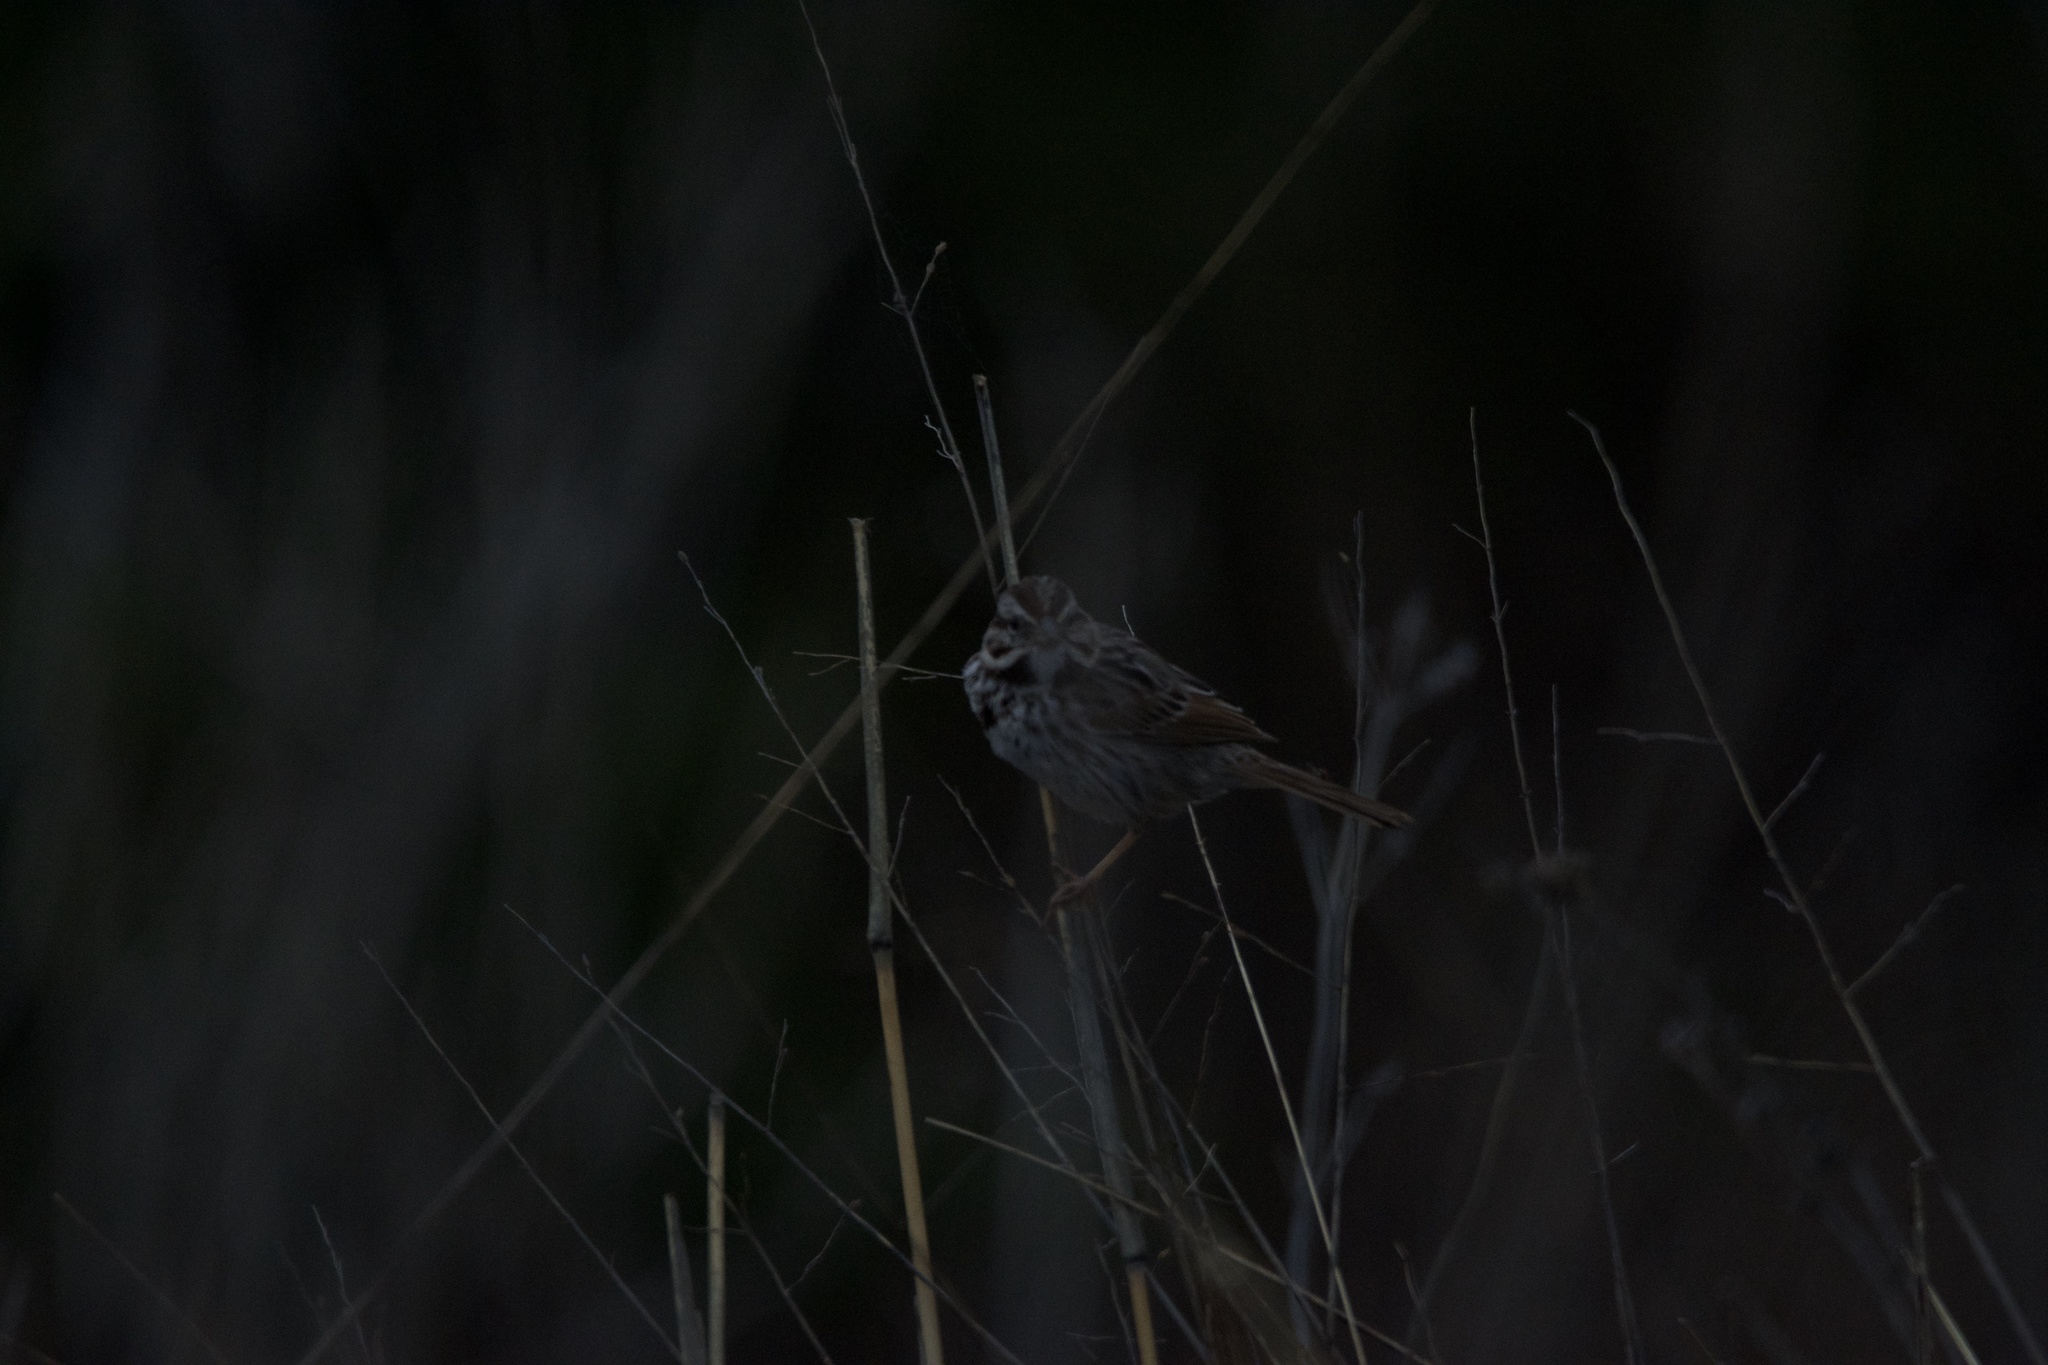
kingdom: Animalia
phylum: Chordata
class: Aves
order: Passeriformes
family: Passerellidae
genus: Melospiza
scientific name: Melospiza melodia
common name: Song sparrow
